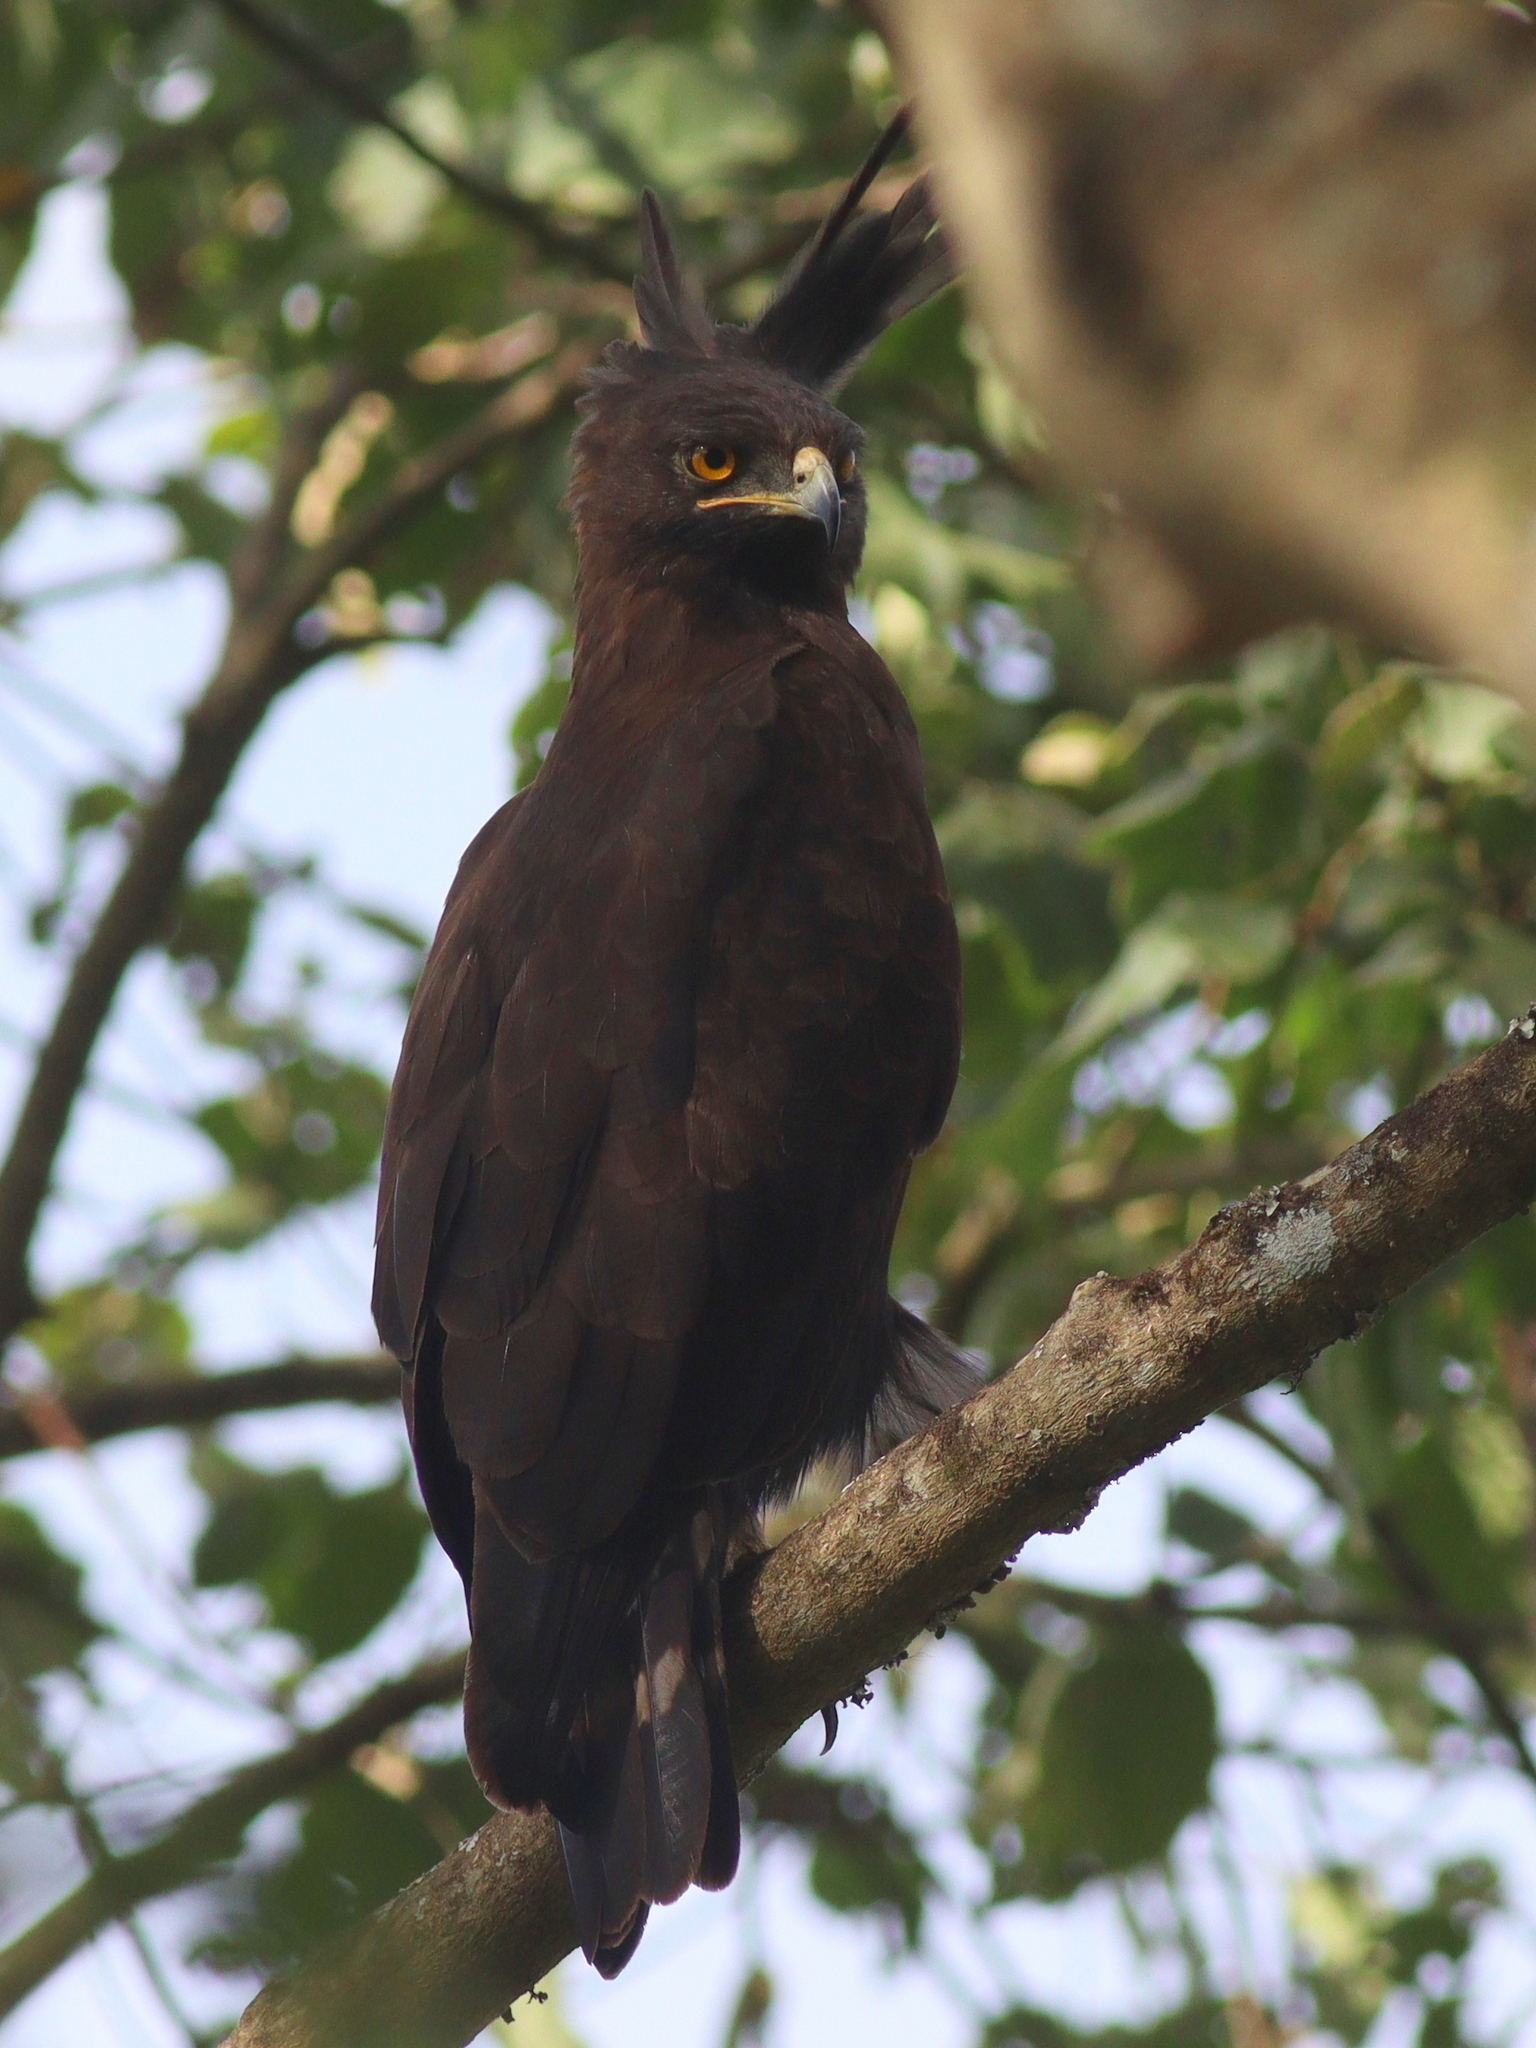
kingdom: Animalia
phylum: Chordata
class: Aves
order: Accipitriformes
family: Accipitridae
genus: Lophaetus
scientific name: Lophaetus occipitalis
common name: Long-crested eagle
